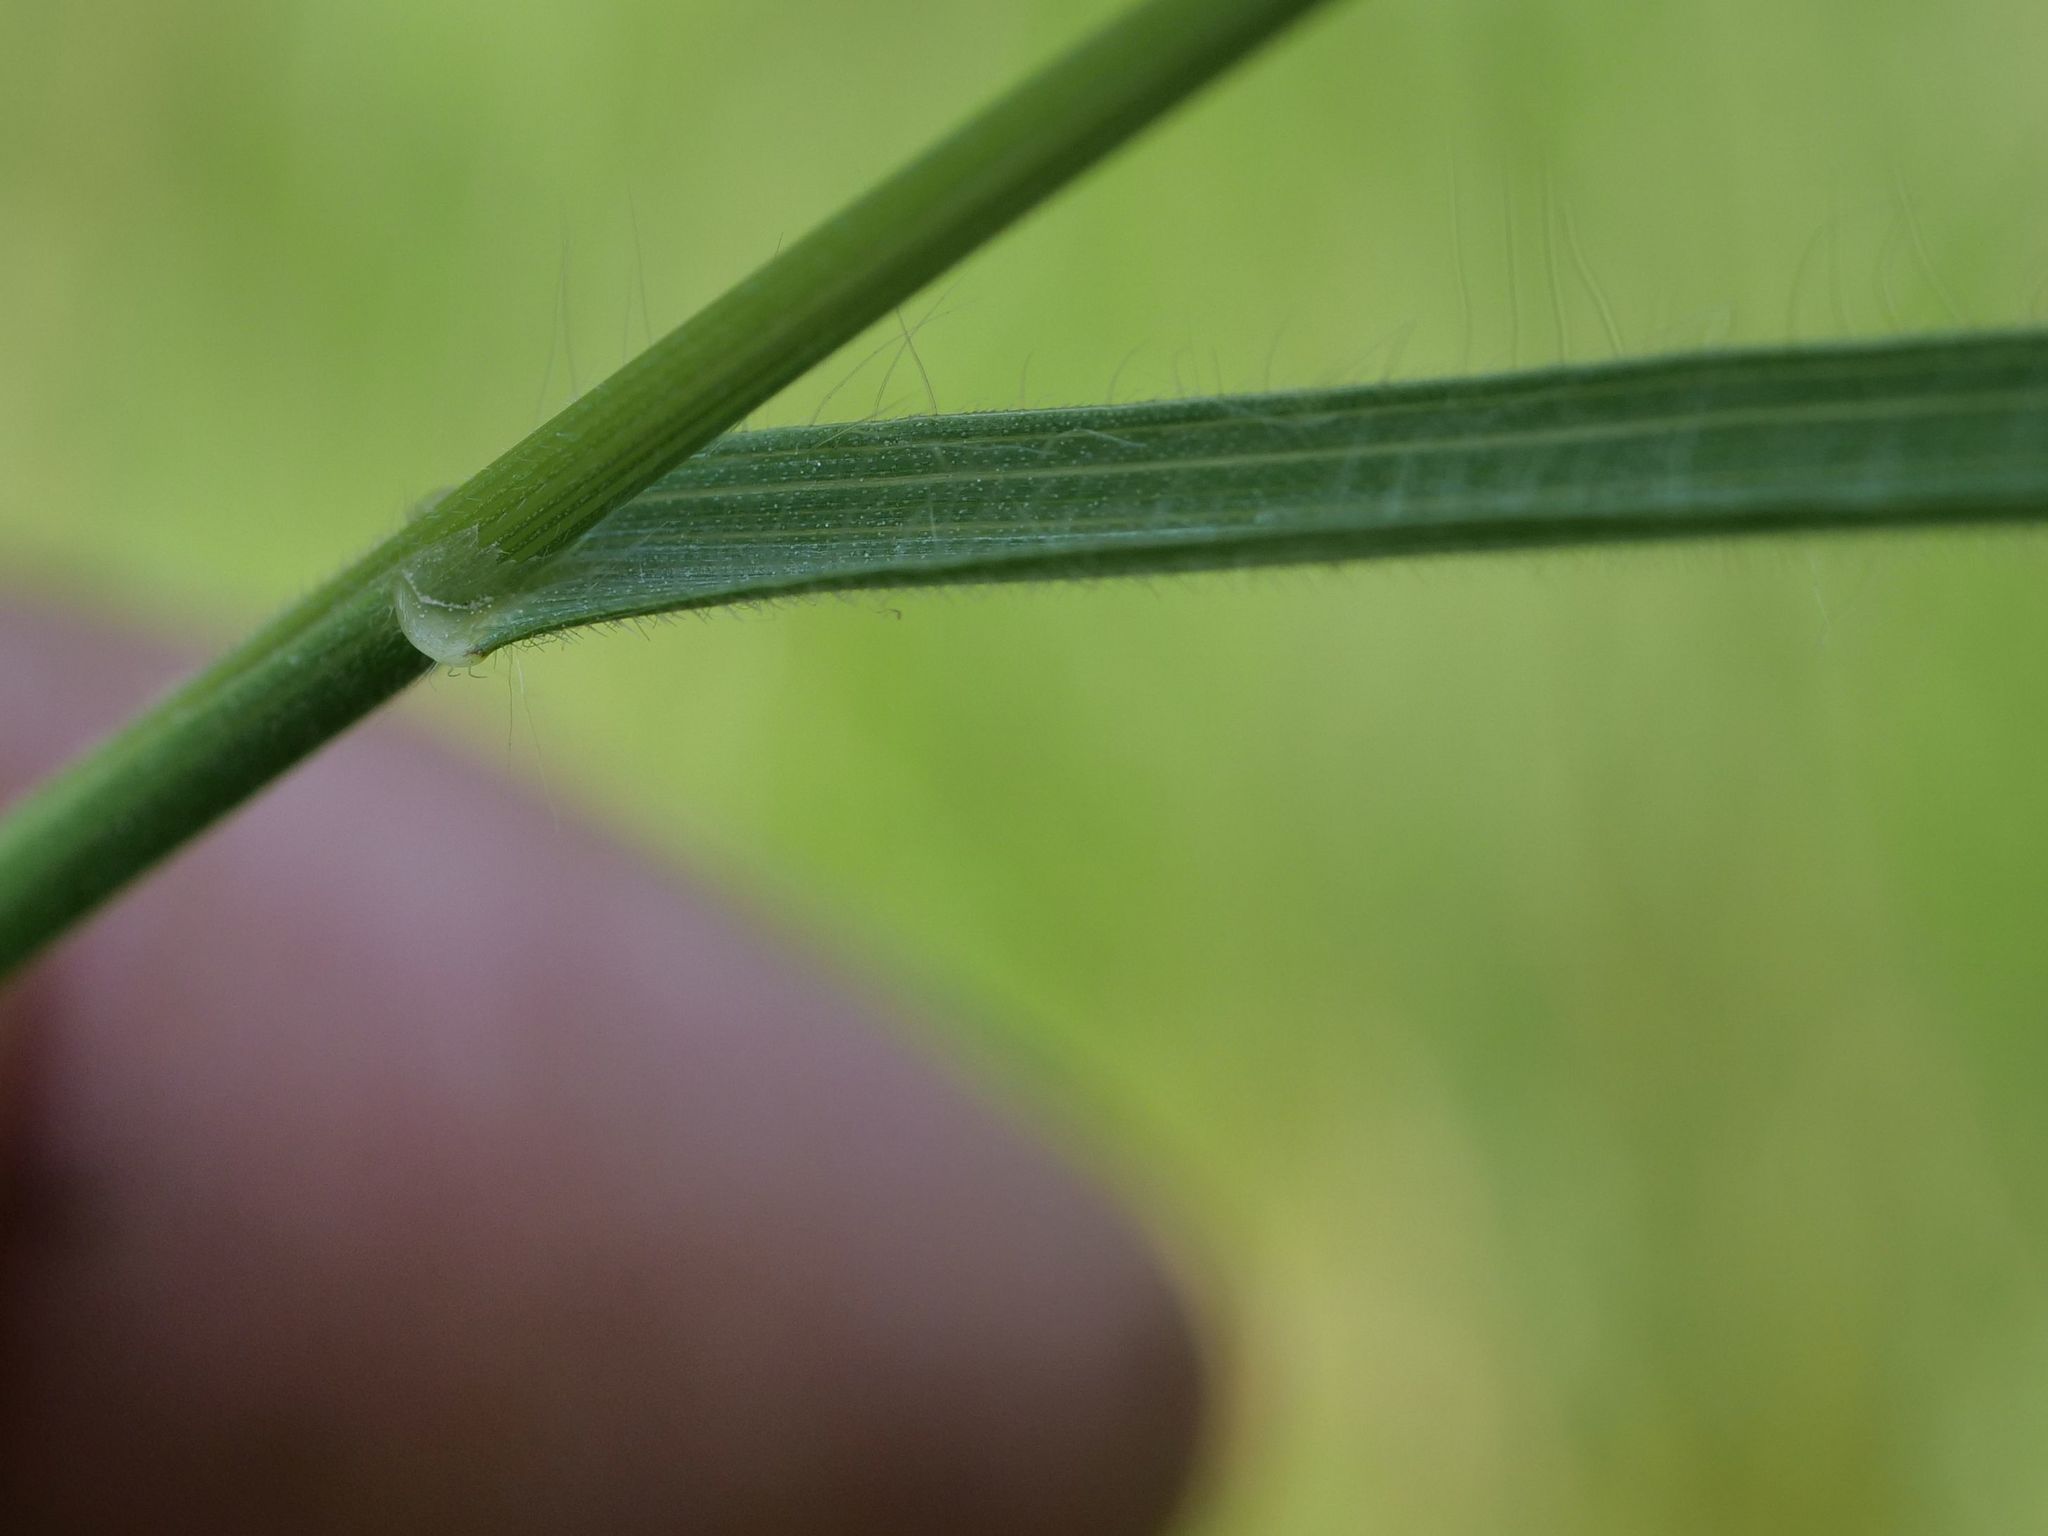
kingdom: Plantae
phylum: Tracheophyta
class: Liliopsida
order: Poales
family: Poaceae
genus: Bromus
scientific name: Bromus hordeaceus
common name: Soft brome
